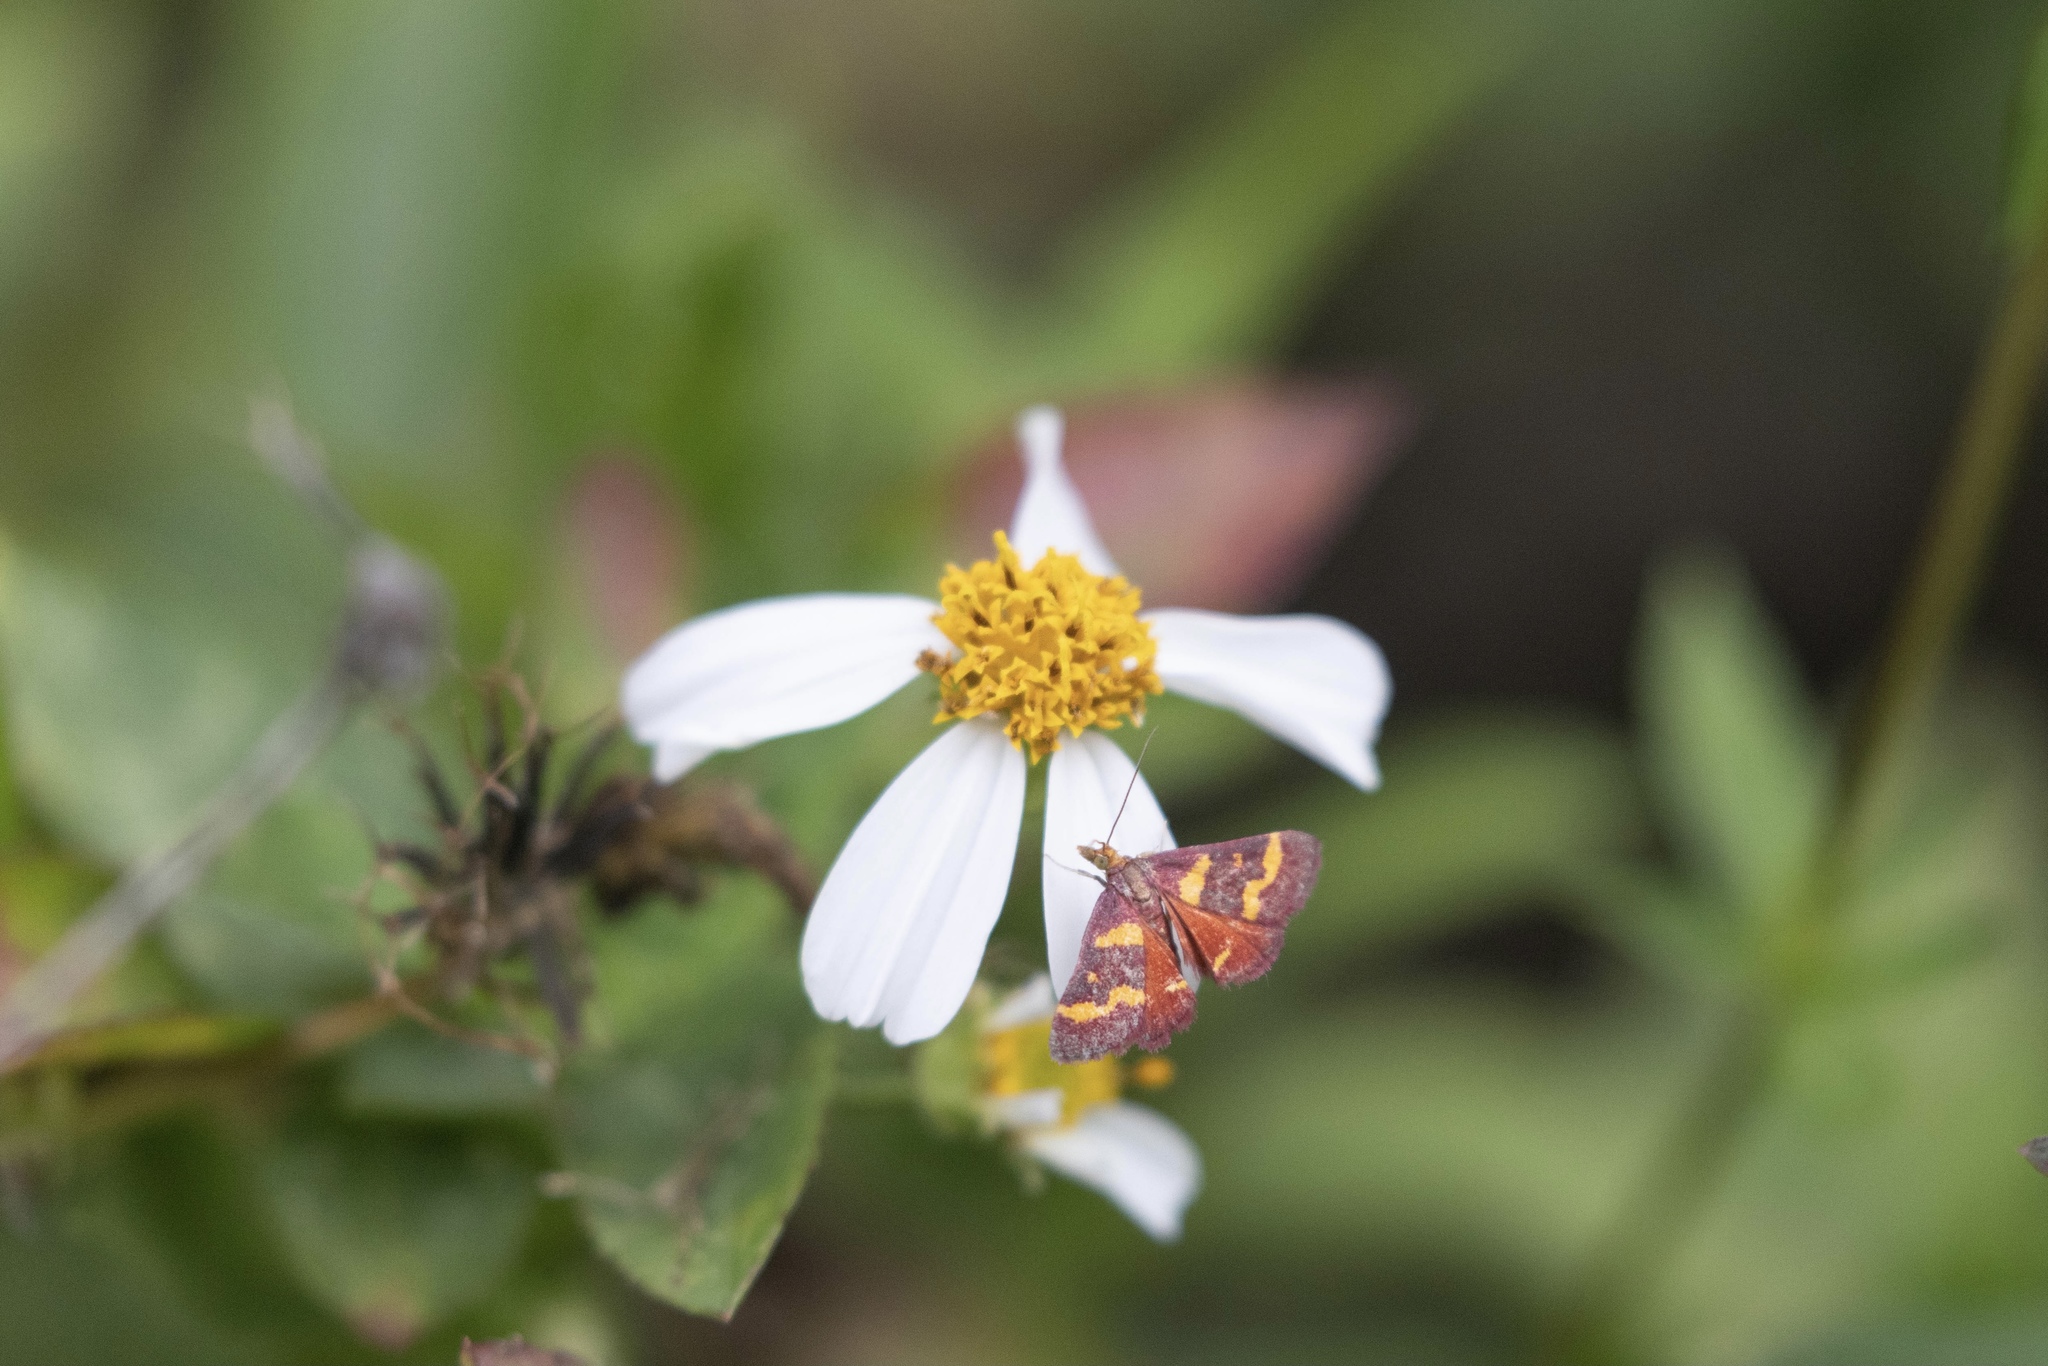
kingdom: Animalia
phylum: Arthropoda
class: Insecta
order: Lepidoptera
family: Crambidae
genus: Pyrausta
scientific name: Pyrausta tyralis
